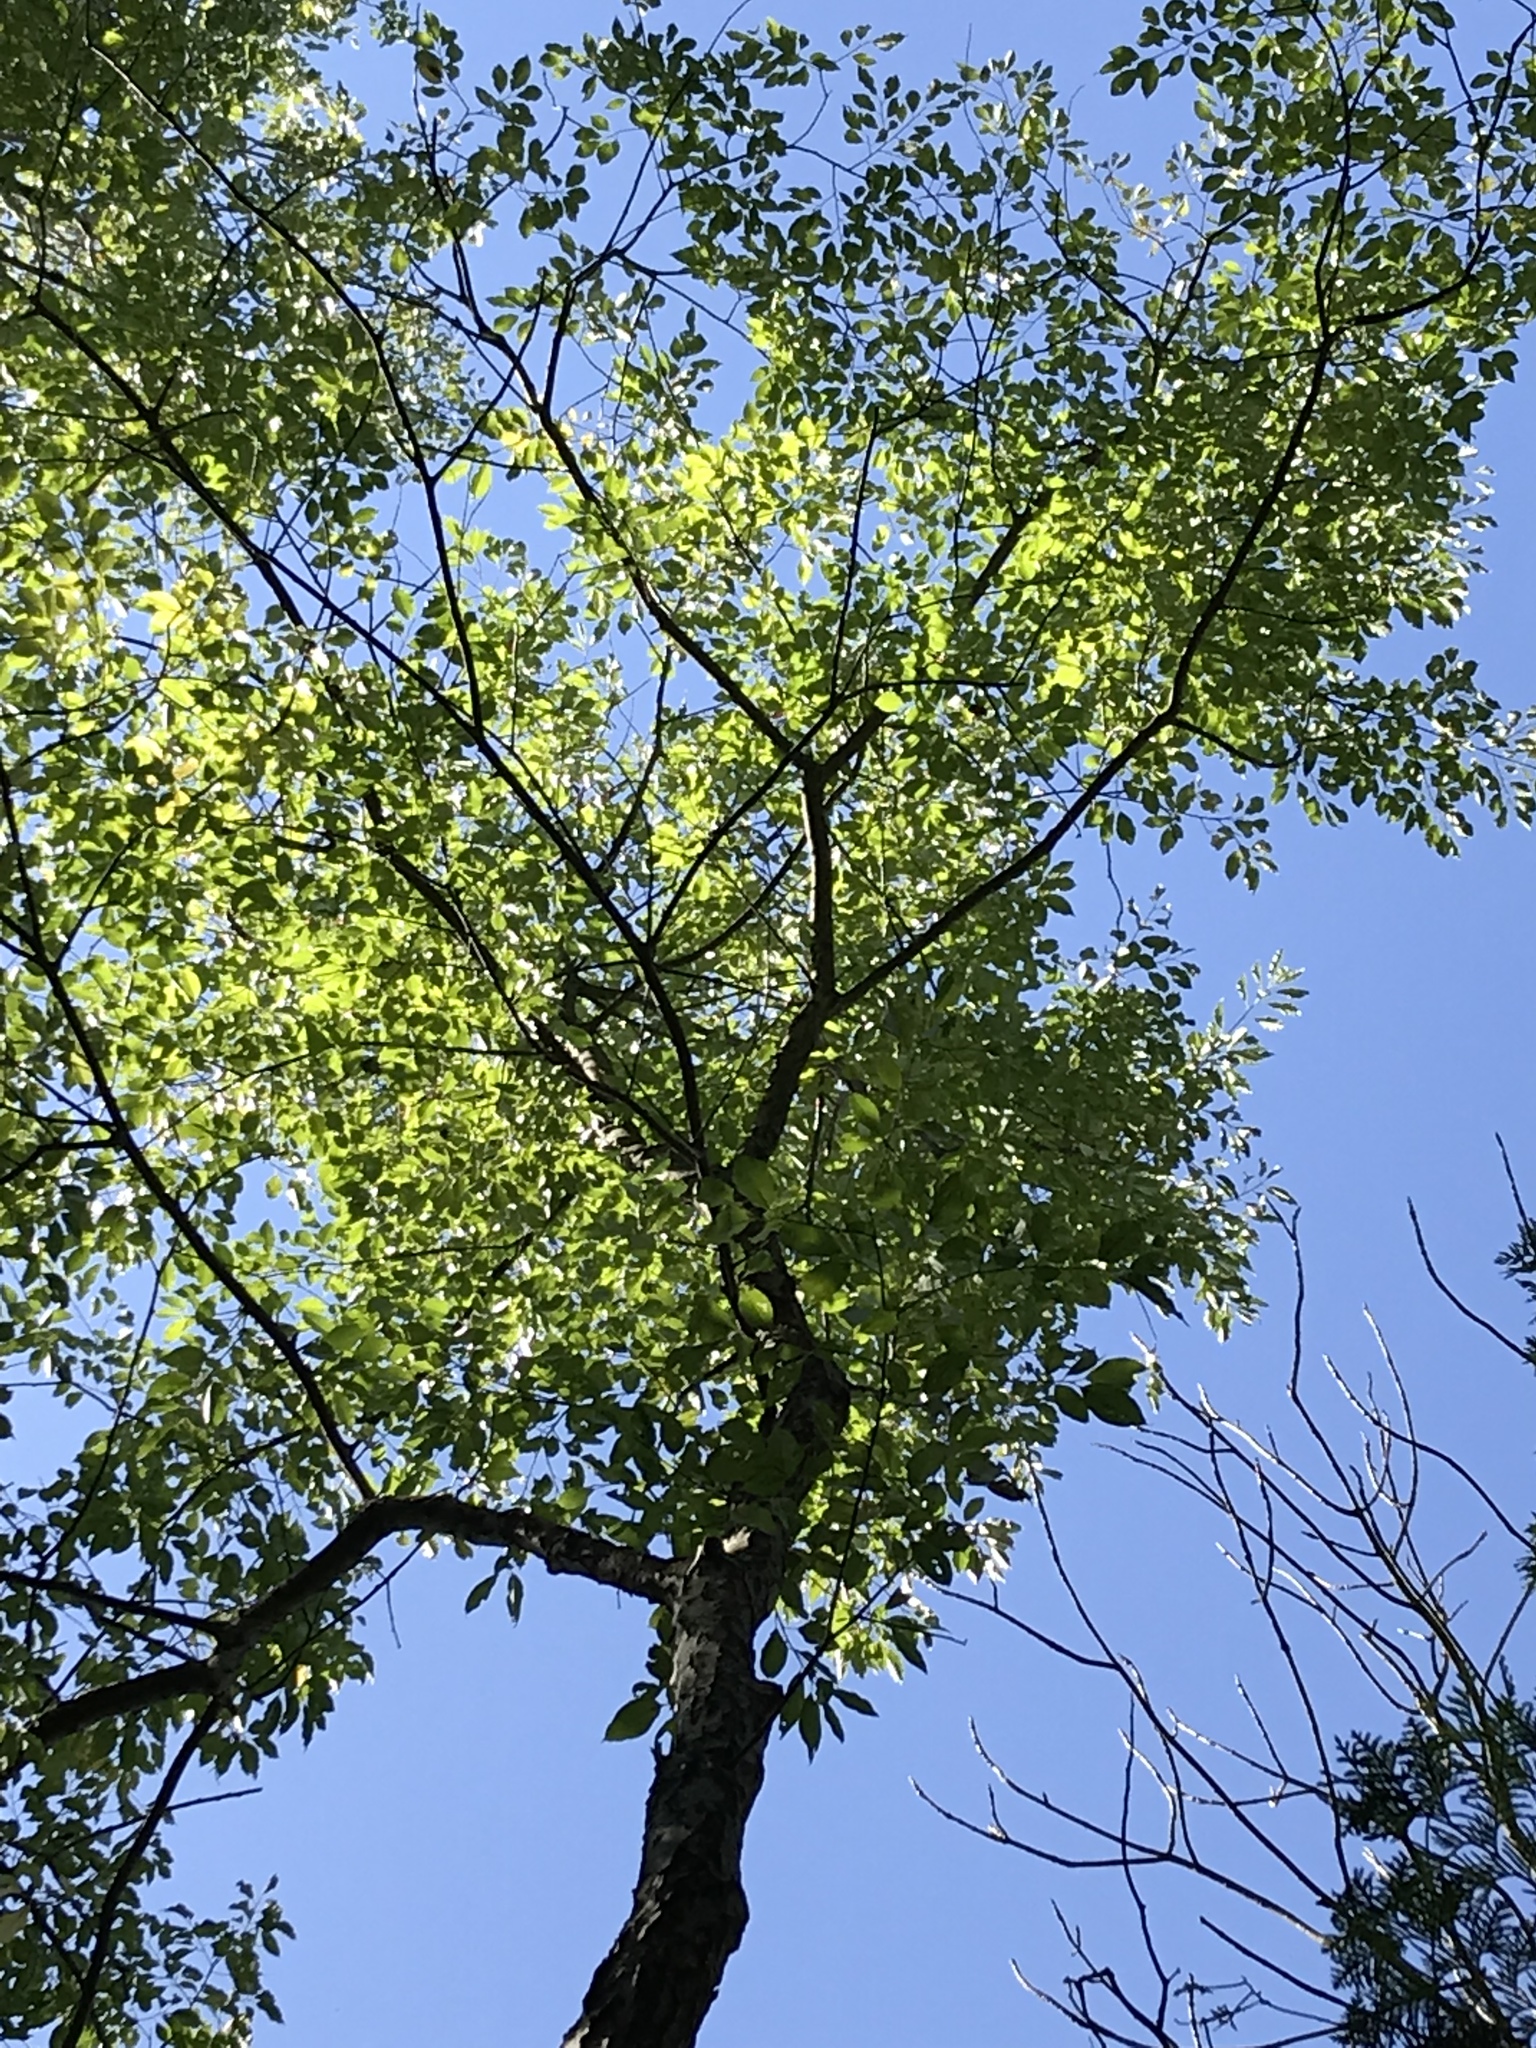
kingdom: Plantae
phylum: Tracheophyta
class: Magnoliopsida
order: Rosales
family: Rosaceae
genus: Prunus
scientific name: Prunus serotina
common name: Black cherry
